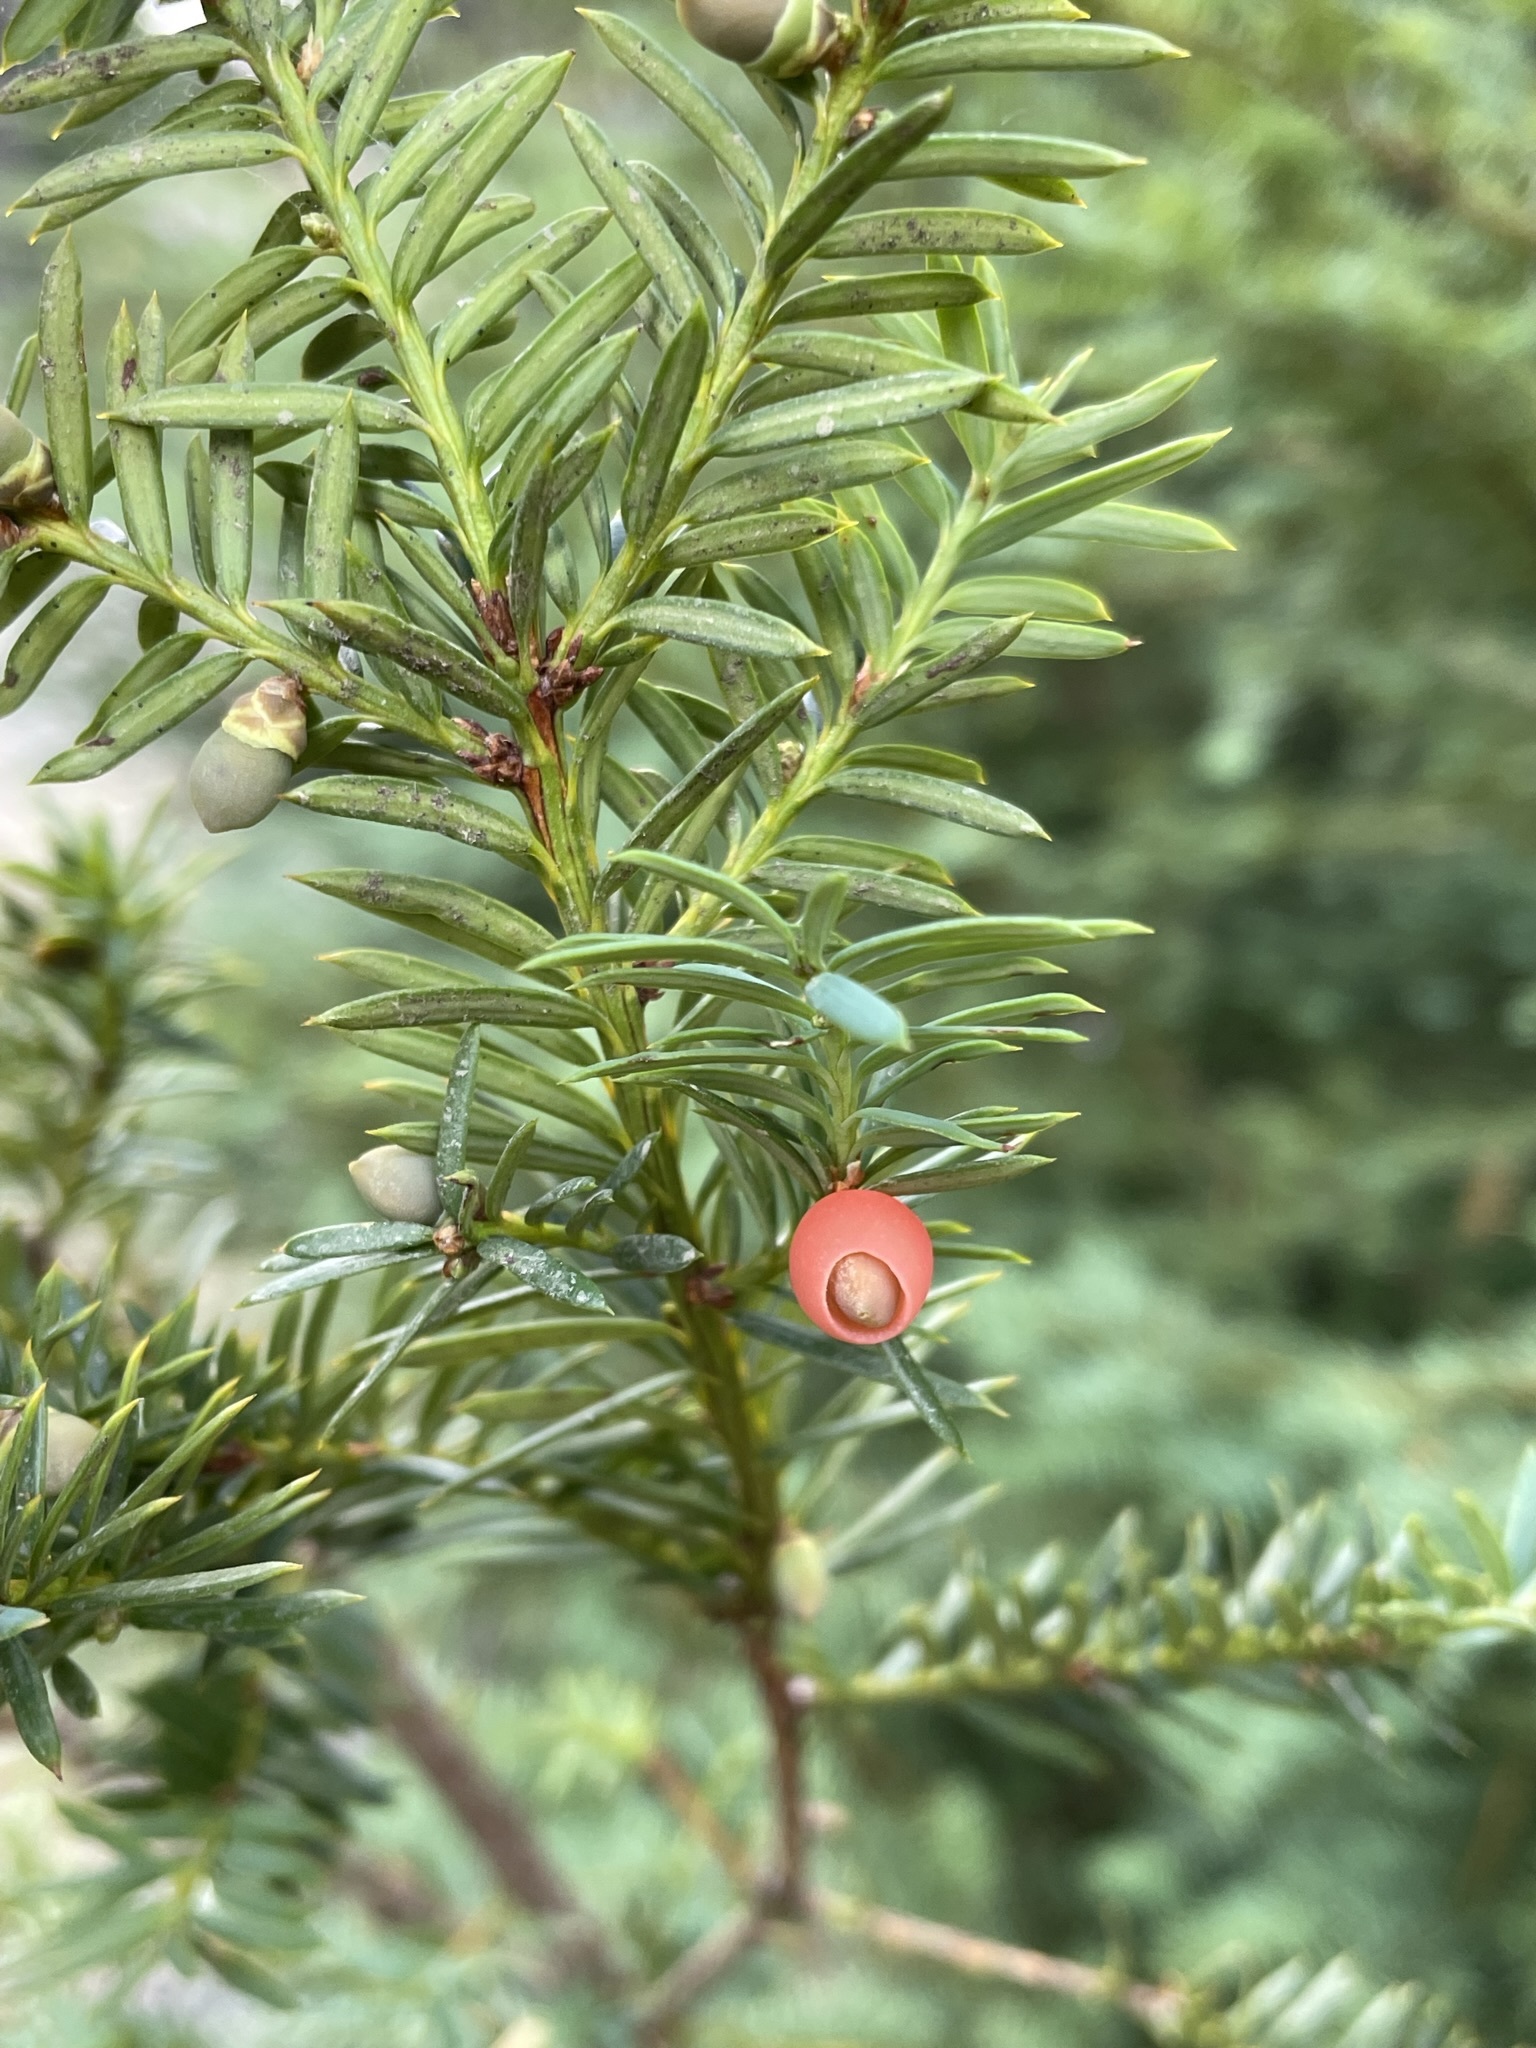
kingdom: Plantae
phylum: Tracheophyta
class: Pinopsida
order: Pinales
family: Taxaceae
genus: Taxus
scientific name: Taxus brevifolia
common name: Pacific yew
